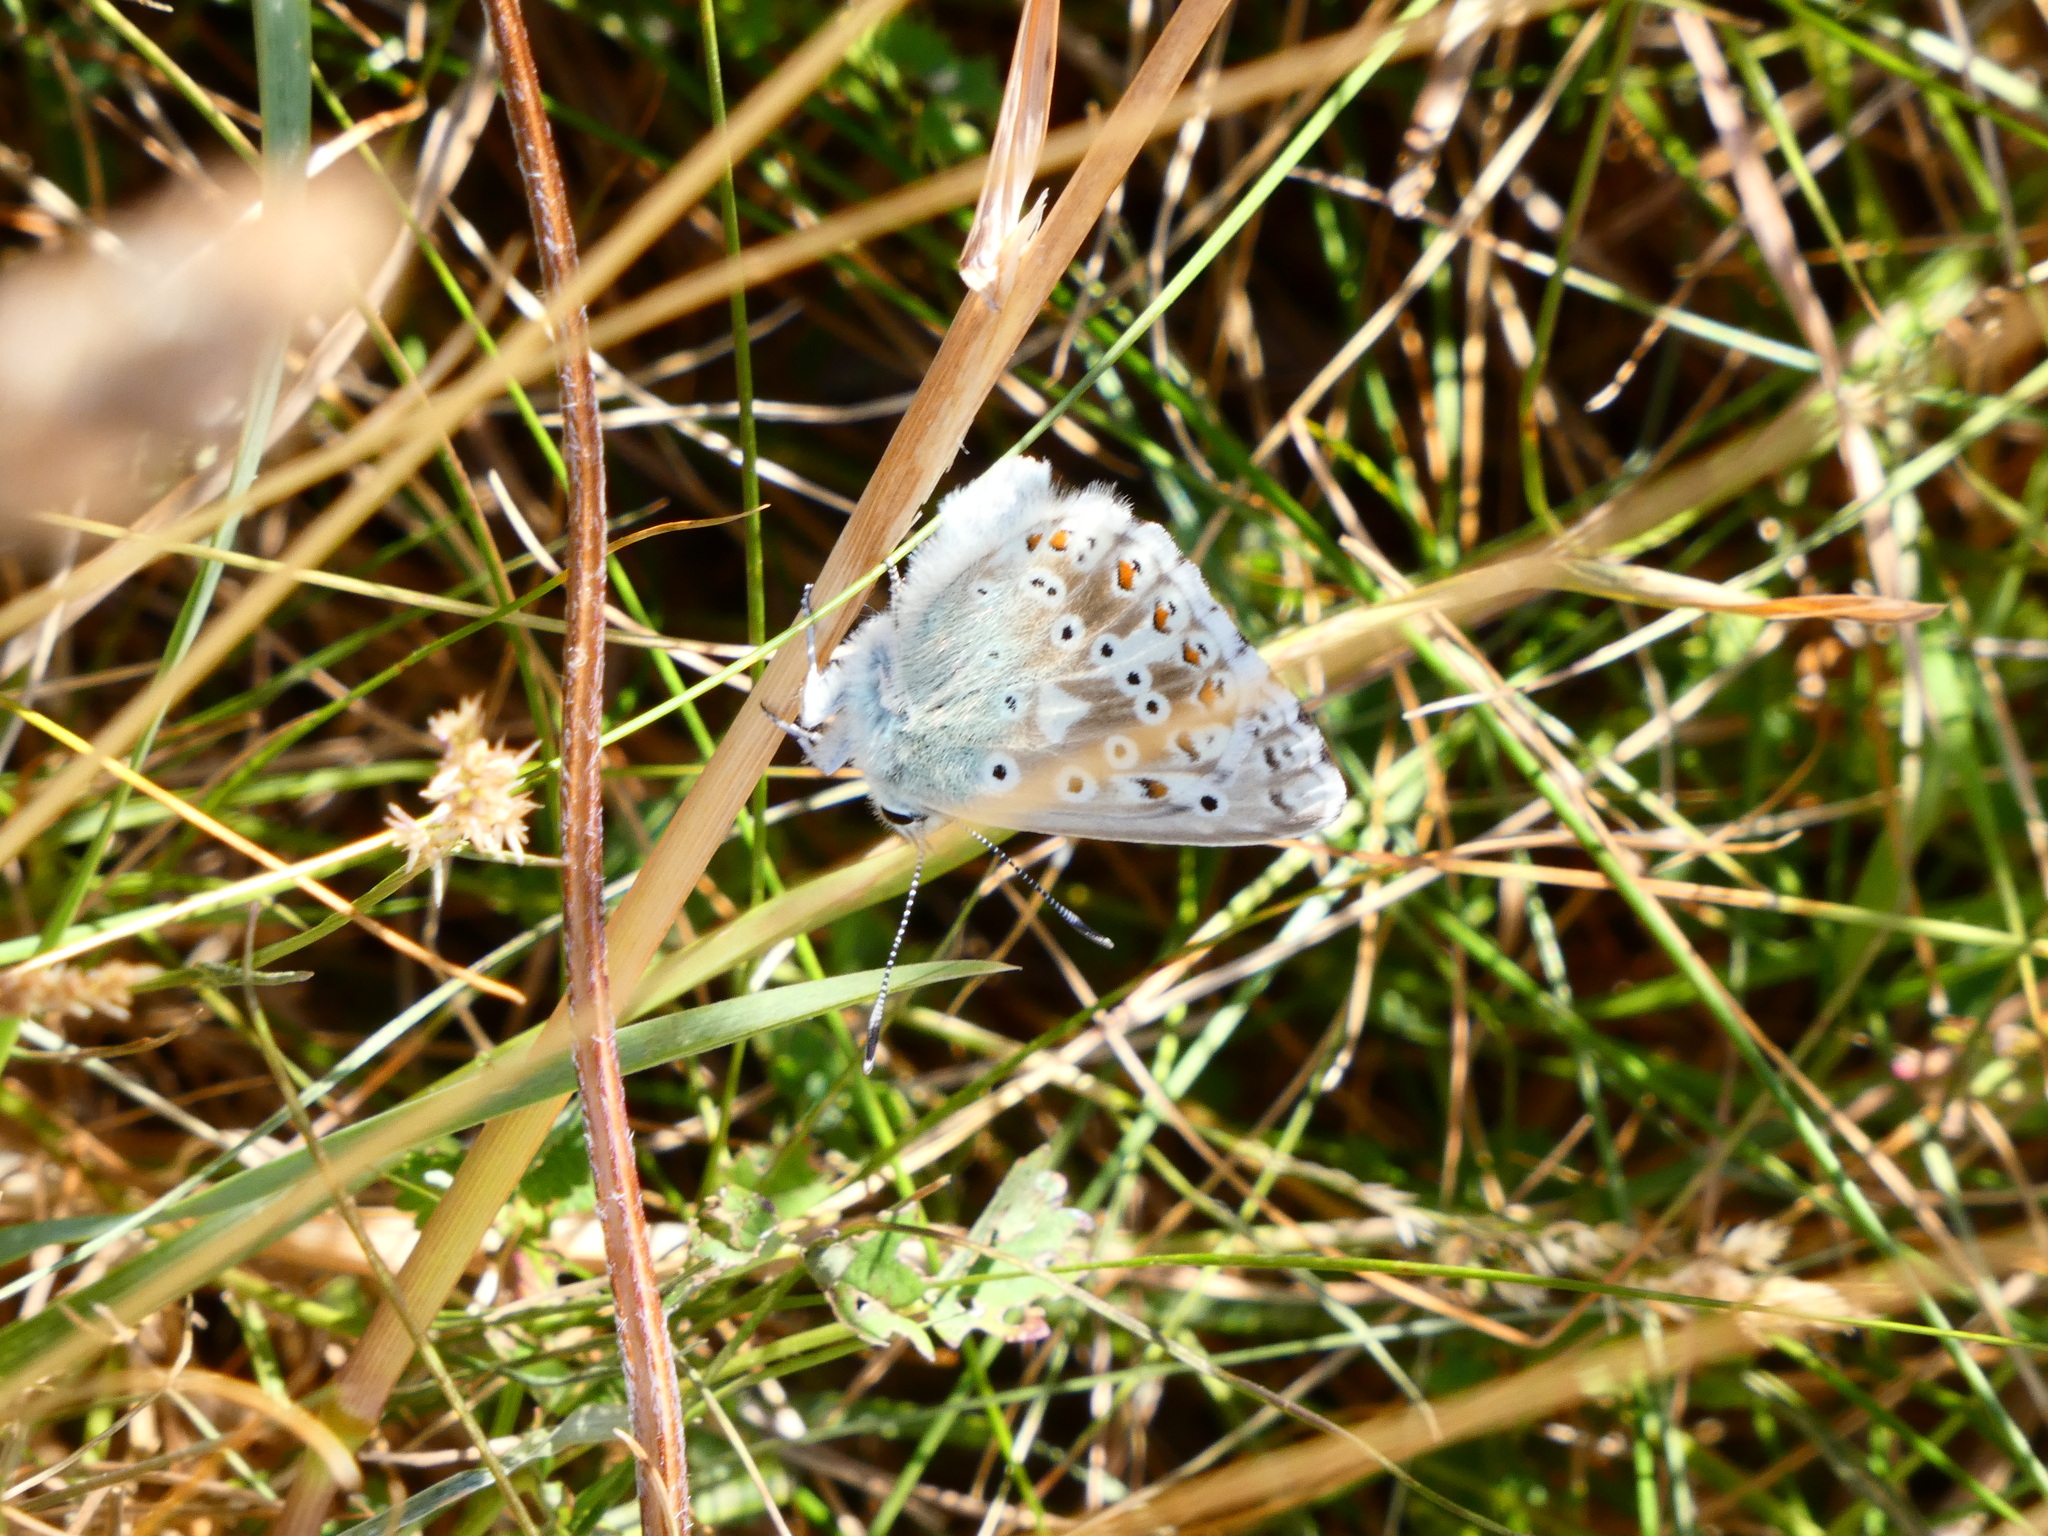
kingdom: Animalia
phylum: Arthropoda
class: Insecta
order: Lepidoptera
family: Lycaenidae
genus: Lysandra
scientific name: Lysandra coridon
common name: Chalkhill blue
